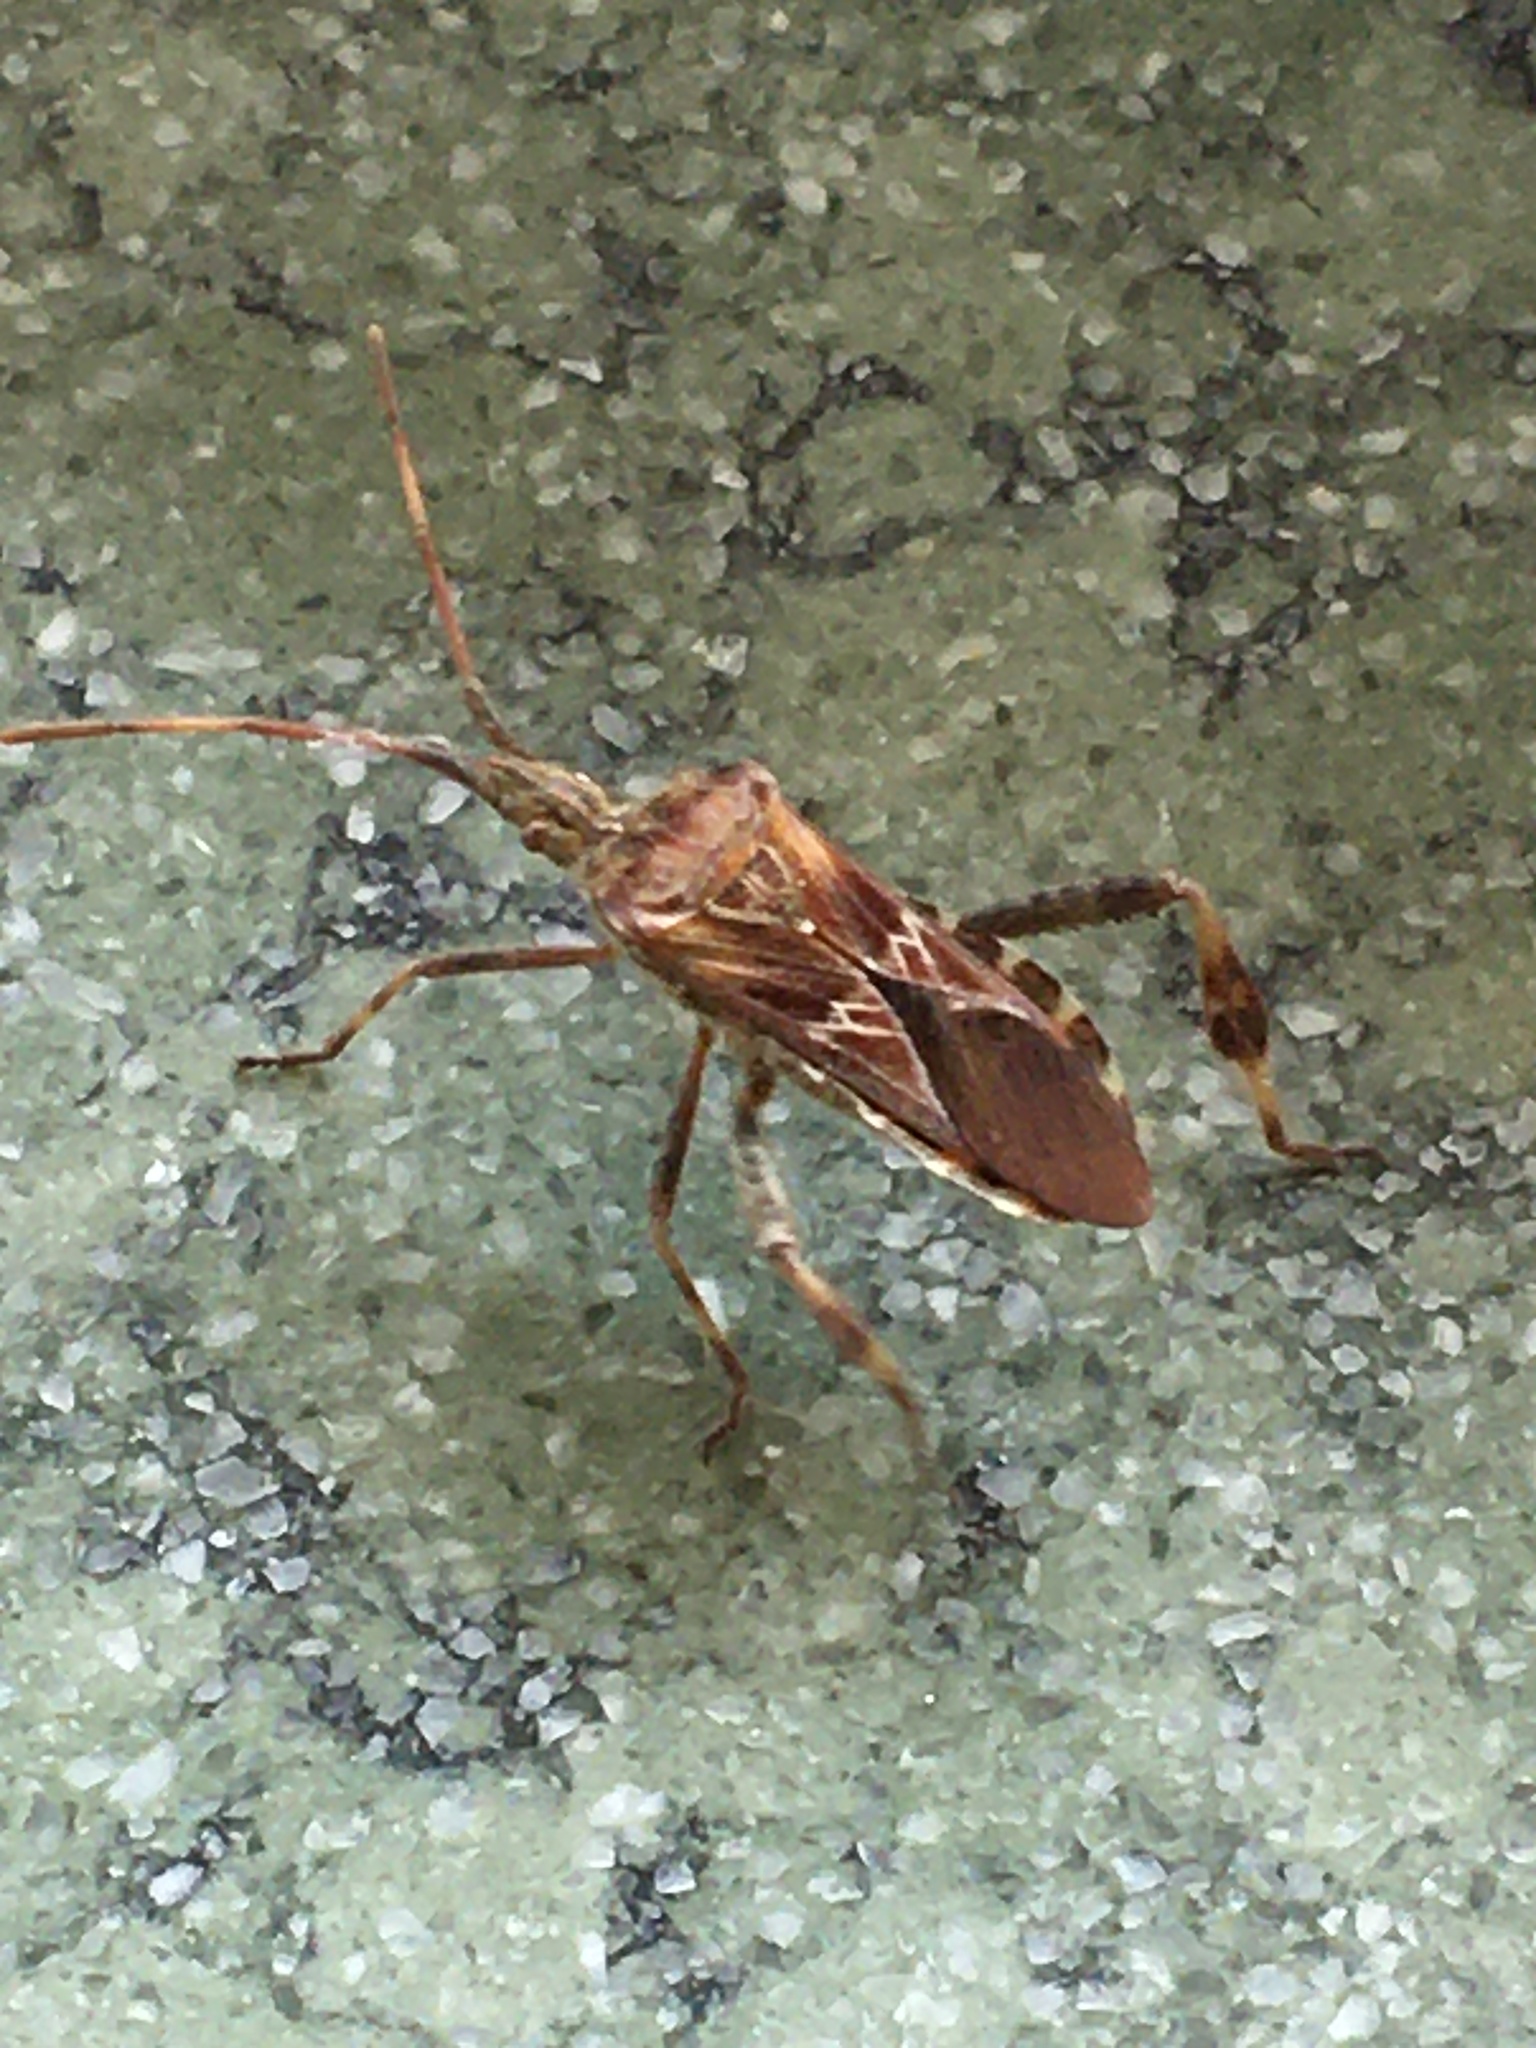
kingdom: Animalia
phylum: Arthropoda
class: Insecta
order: Hemiptera
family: Coreidae
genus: Leptoglossus
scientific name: Leptoglossus occidentalis
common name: Western conifer-seed bug
